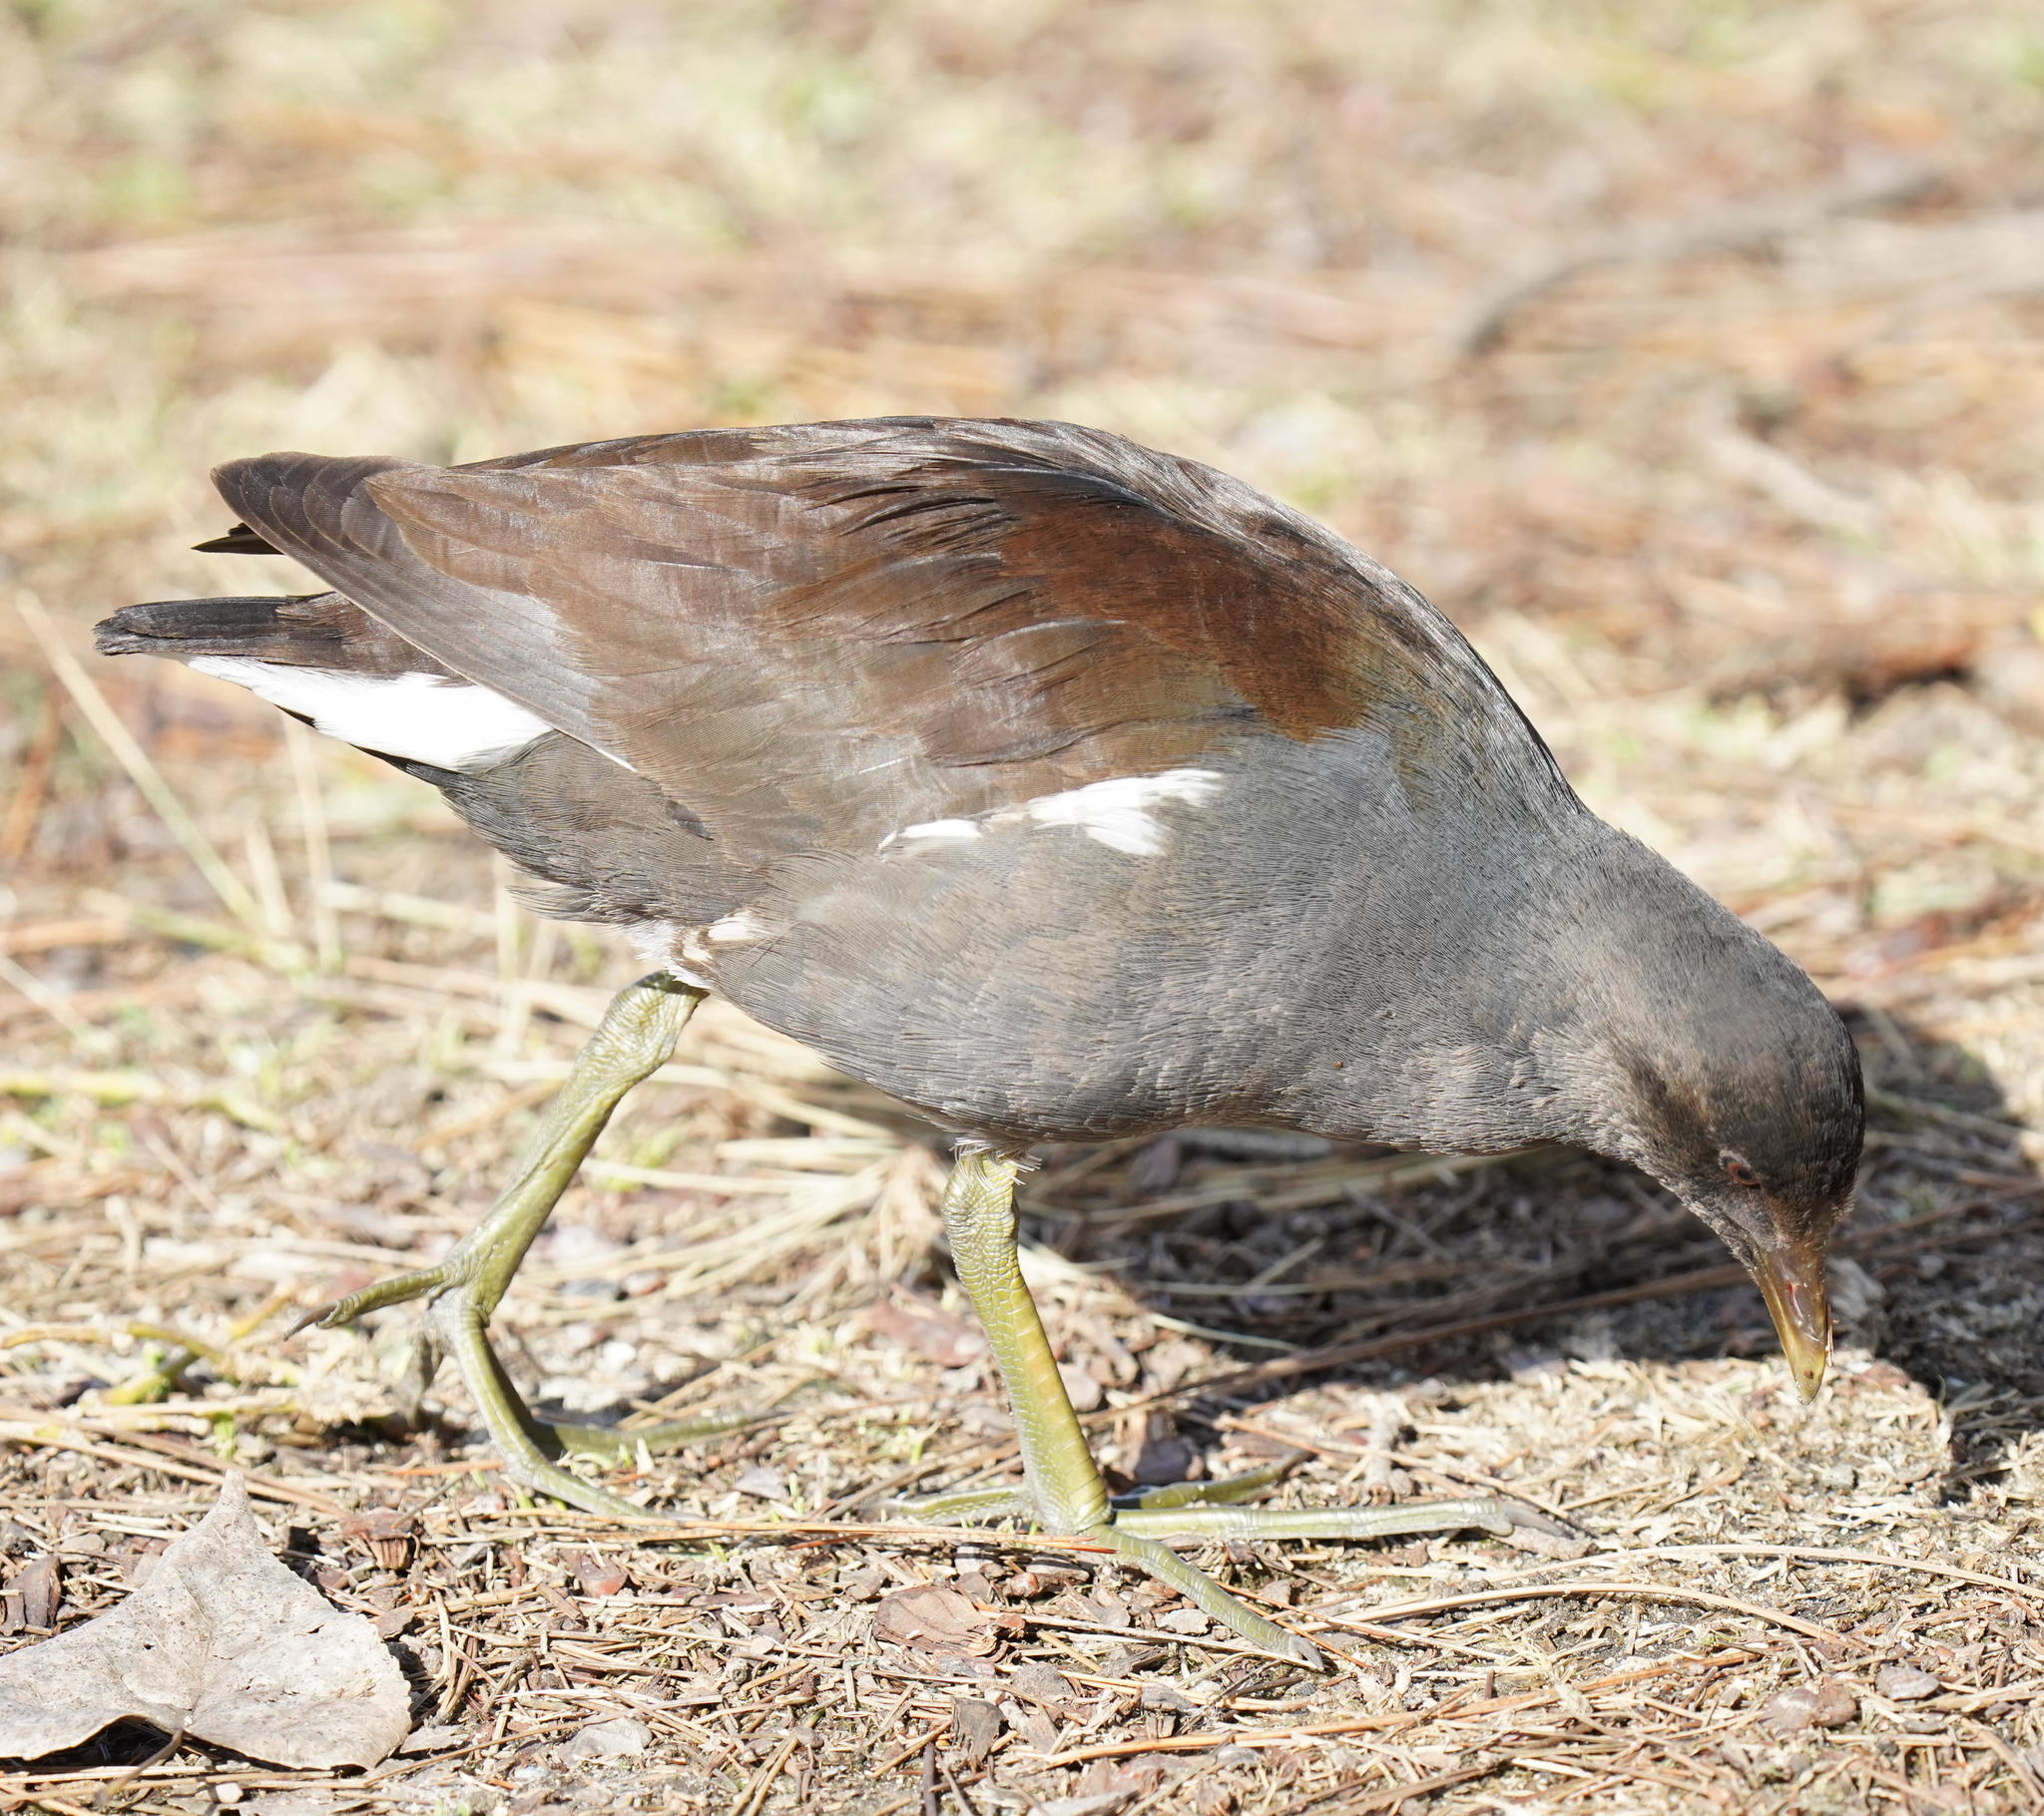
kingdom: Animalia
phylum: Chordata
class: Aves
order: Gruiformes
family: Rallidae
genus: Gallinula
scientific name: Gallinula chloropus
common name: Common moorhen
